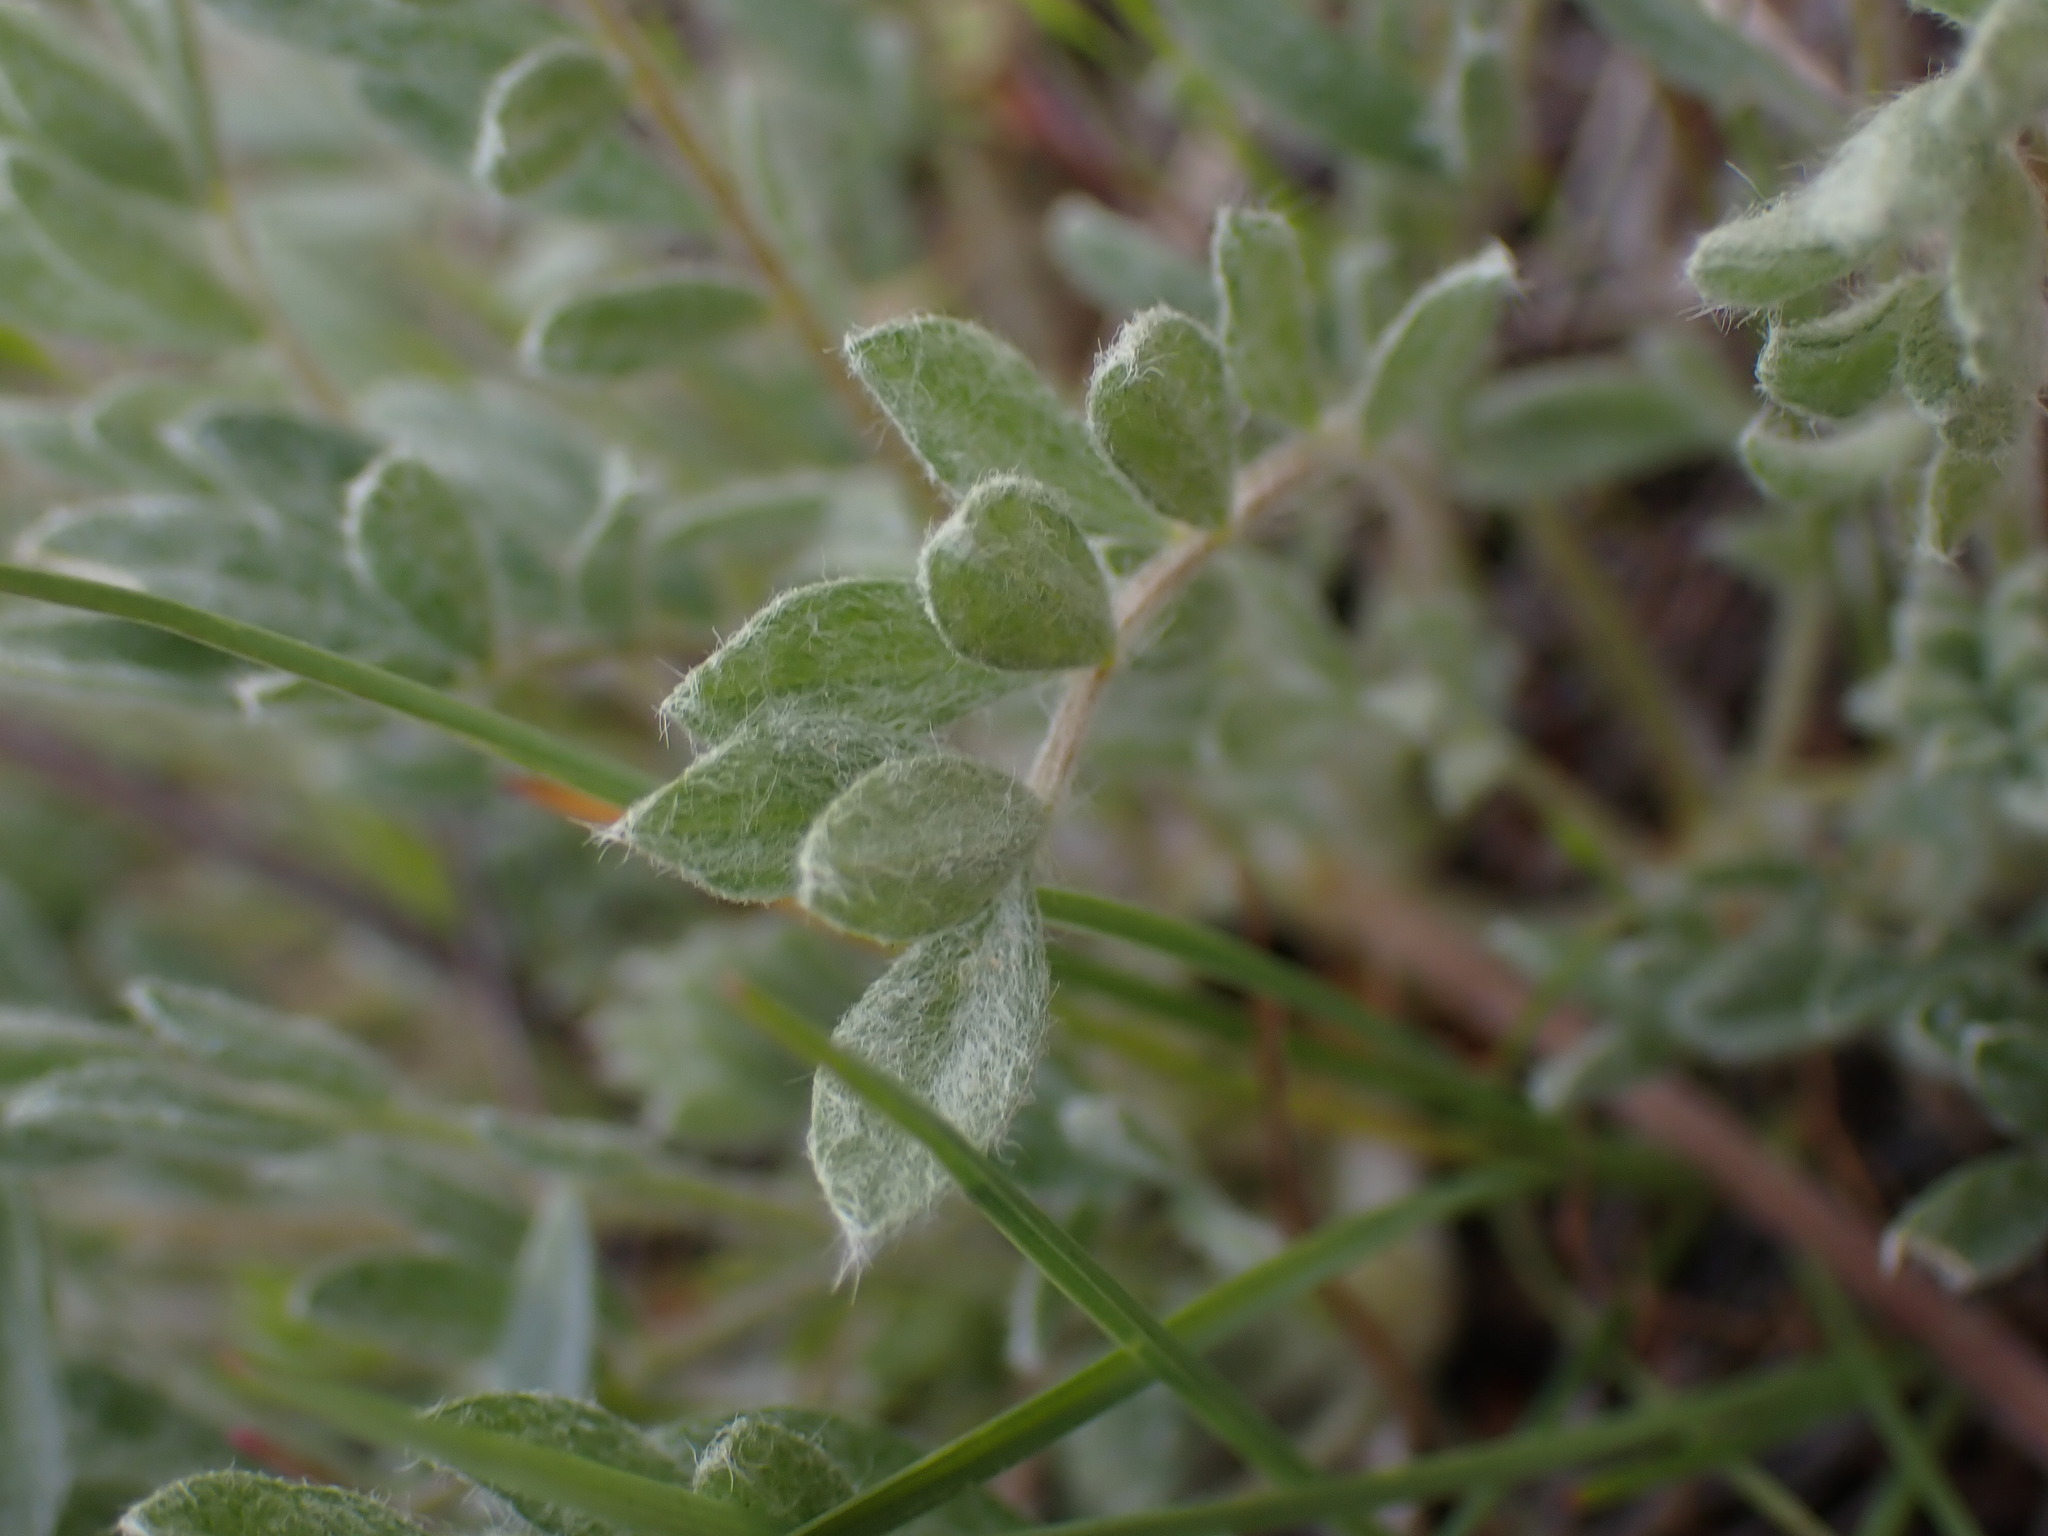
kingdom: Plantae
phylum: Tracheophyta
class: Magnoliopsida
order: Fabales
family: Fabaceae
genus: Astragalus
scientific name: Astragalus purshii
